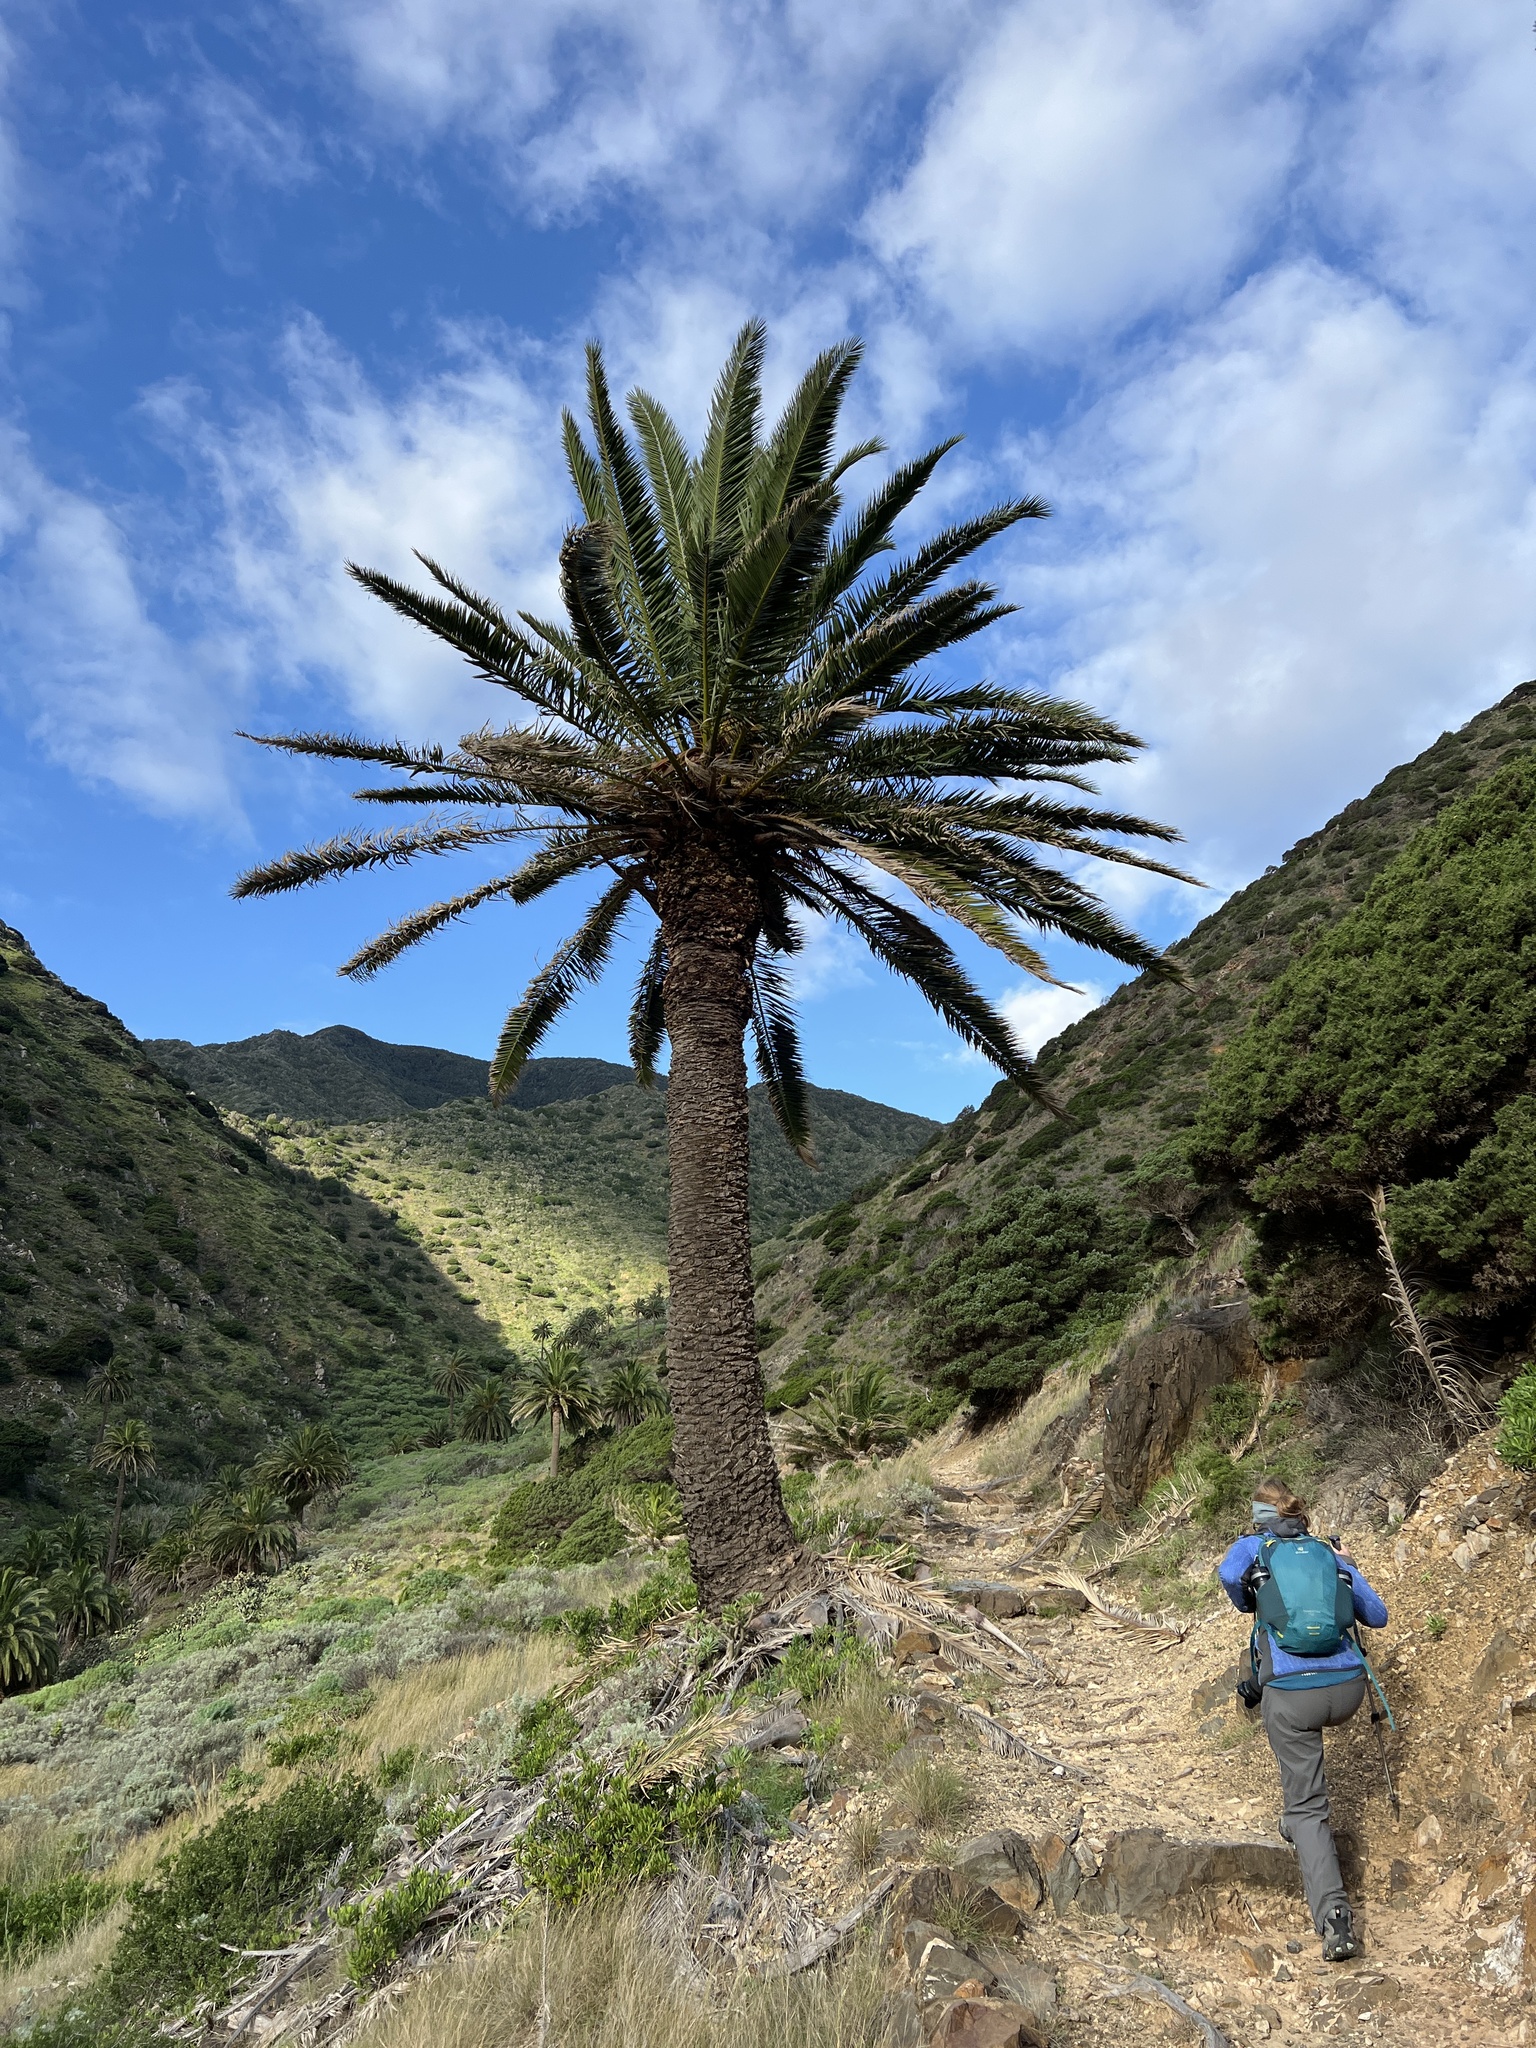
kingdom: Plantae
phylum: Tracheophyta
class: Liliopsida
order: Arecales
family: Arecaceae
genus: Phoenix
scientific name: Phoenix canariensis
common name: Canary island date palm
